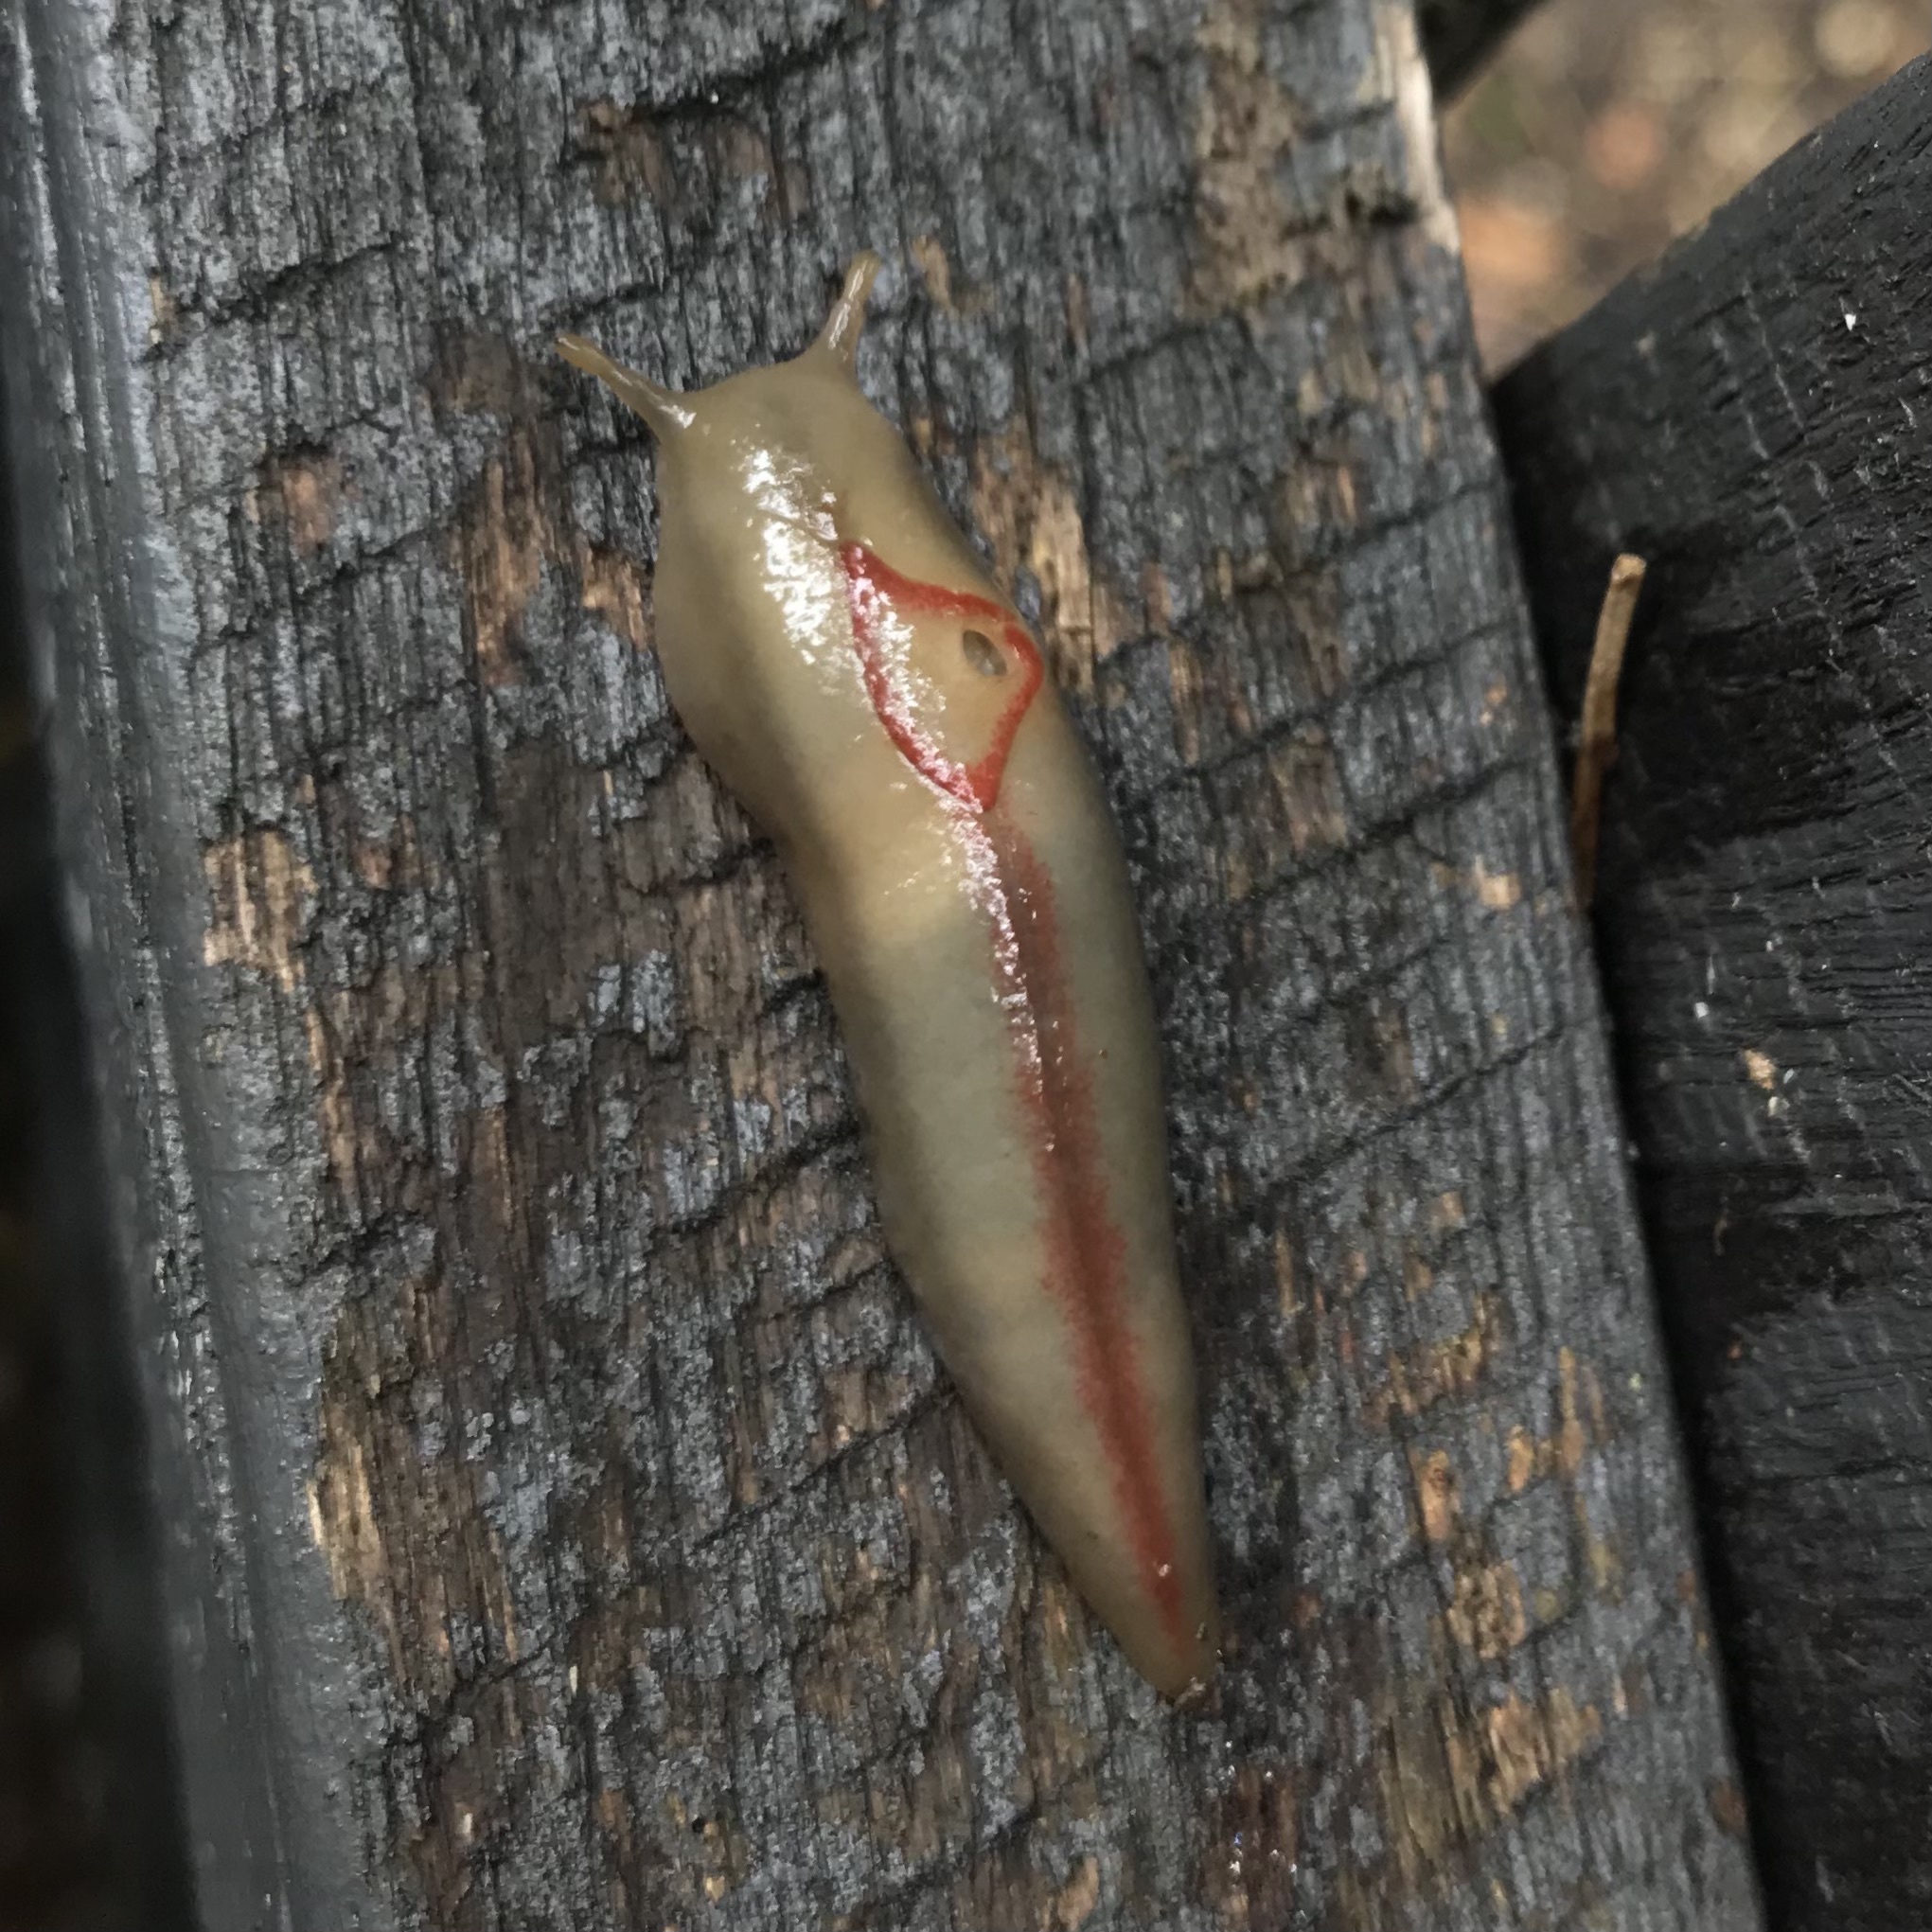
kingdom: Animalia
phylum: Mollusca
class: Gastropoda
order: Stylommatophora
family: Athoracophoridae
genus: Triboniophorus
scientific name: Triboniophorus graeffei
